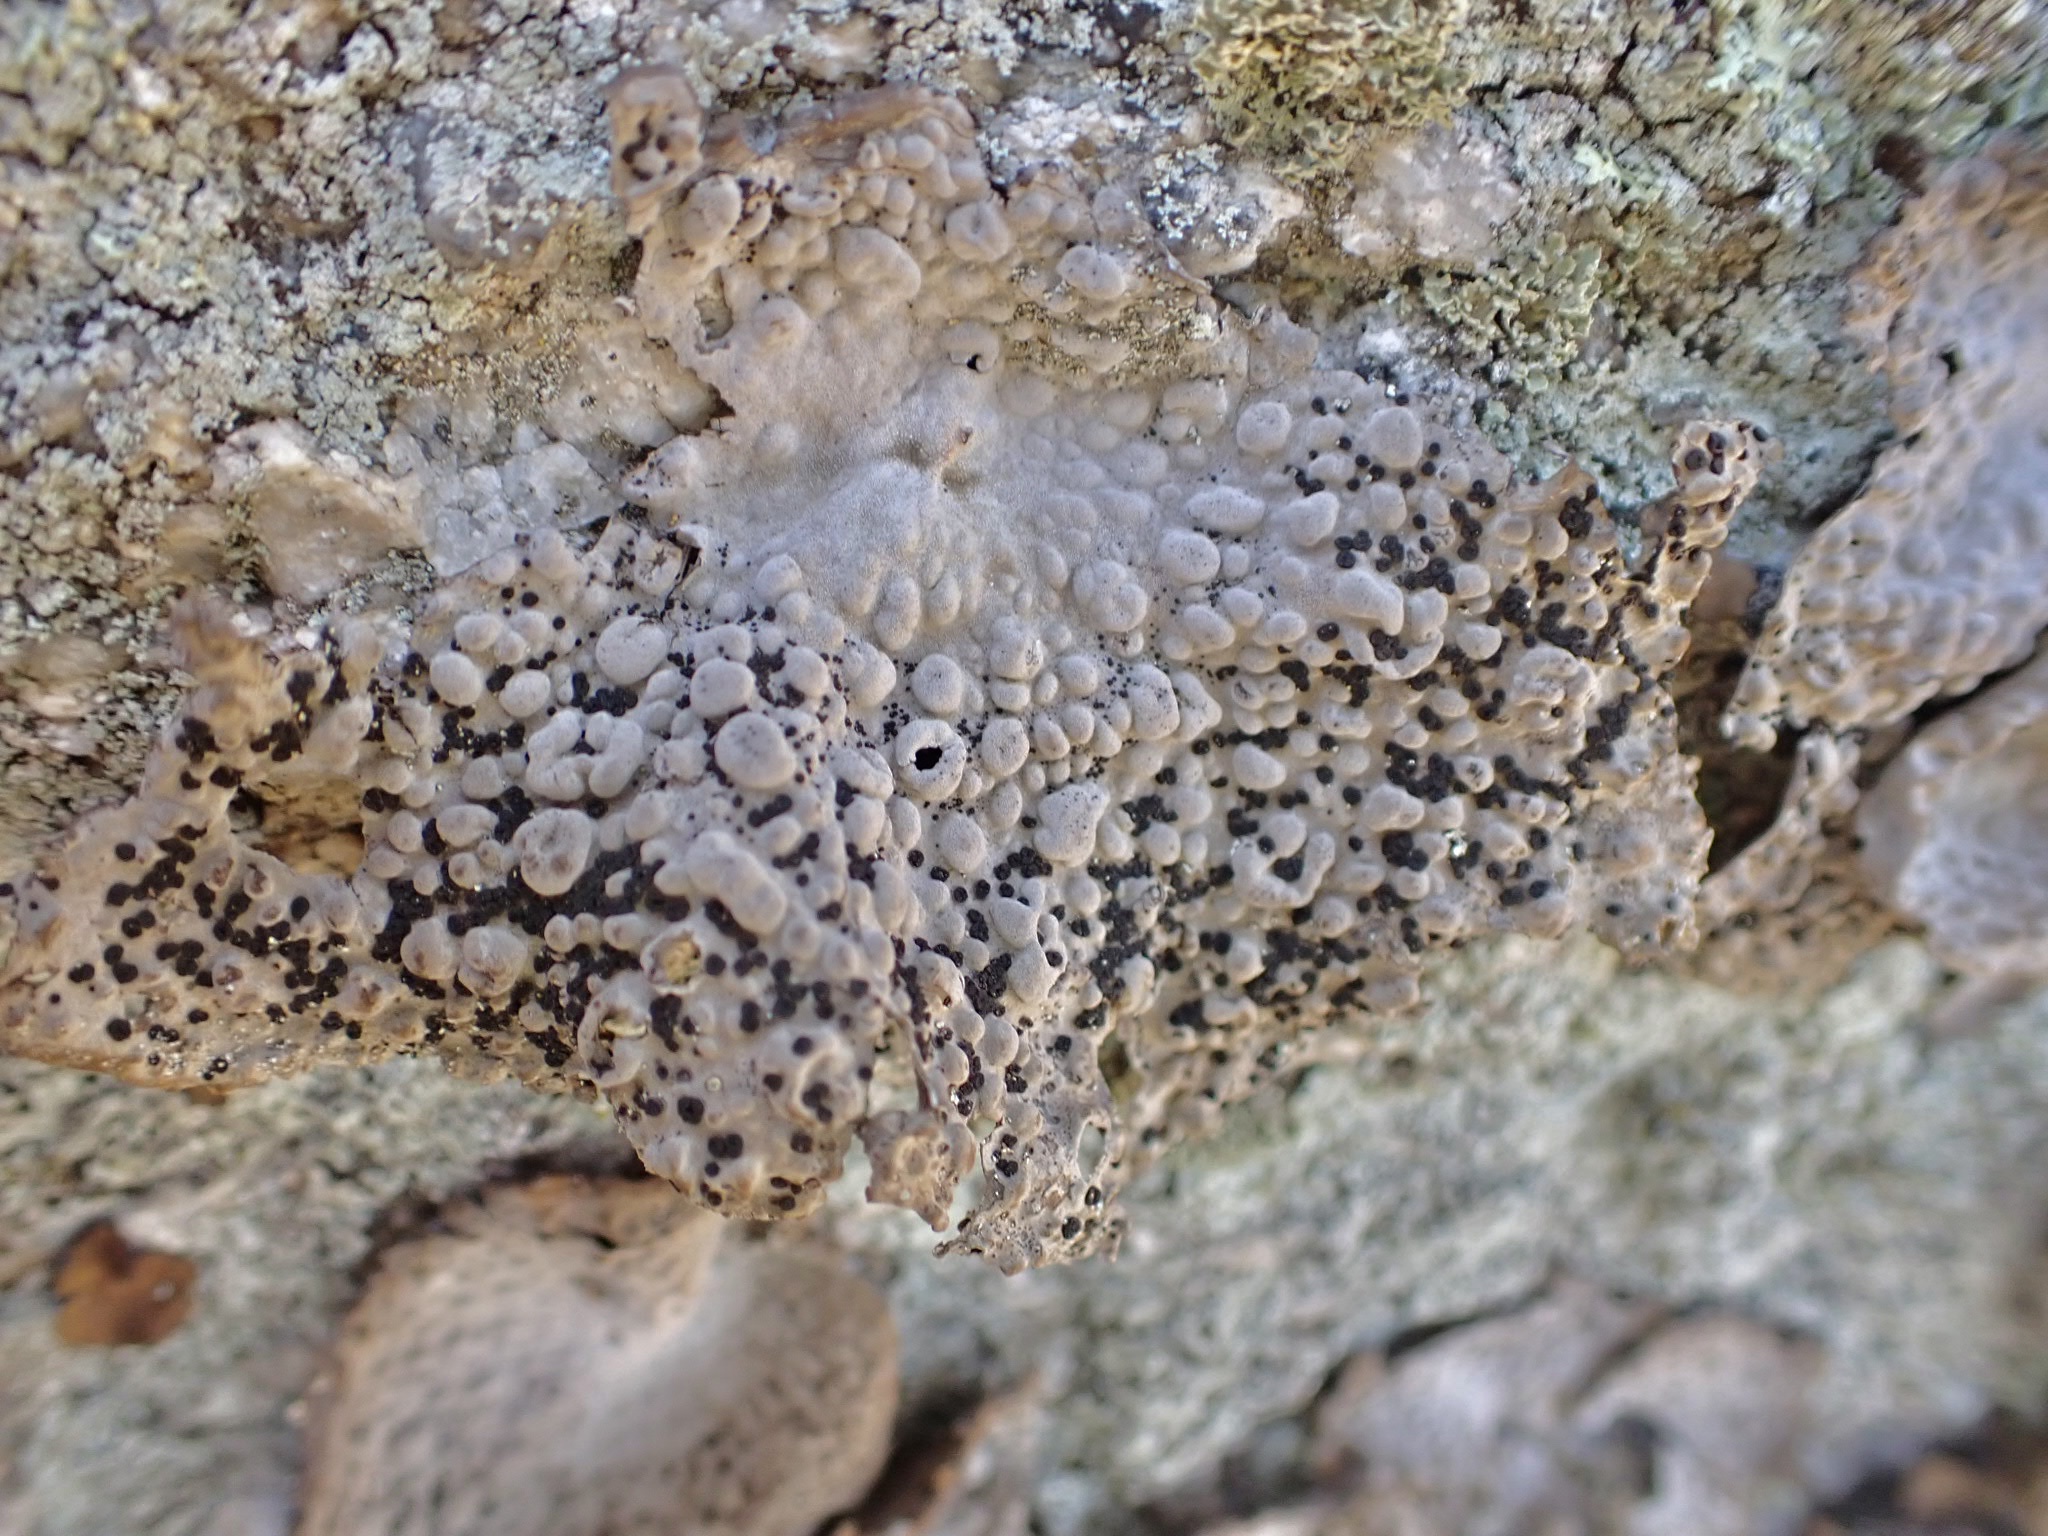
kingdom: Fungi
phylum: Ascomycota
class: Lecanoromycetes
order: Umbilicariales
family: Umbilicariaceae
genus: Lasallia
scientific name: Lasallia papulosa
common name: Common toadskin lichen
